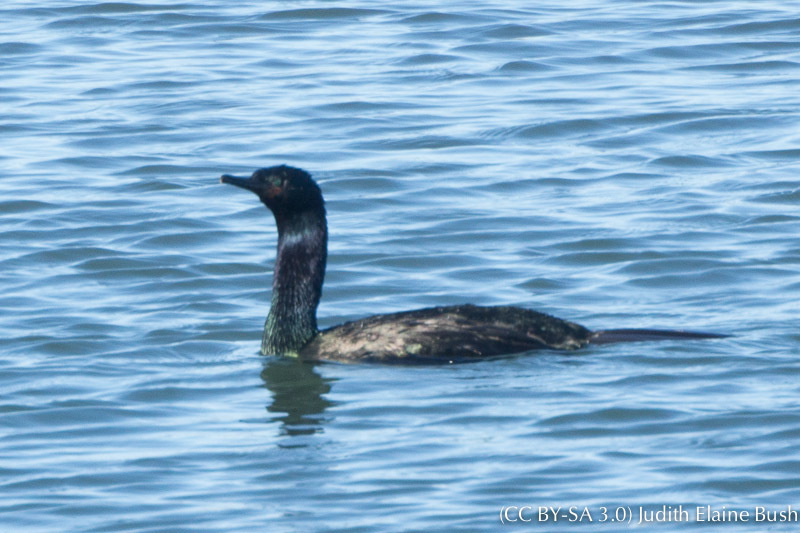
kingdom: Animalia
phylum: Chordata
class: Aves
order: Suliformes
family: Phalacrocoracidae
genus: Phalacrocorax
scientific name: Phalacrocorax pelagicus
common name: Pelagic cormorant
